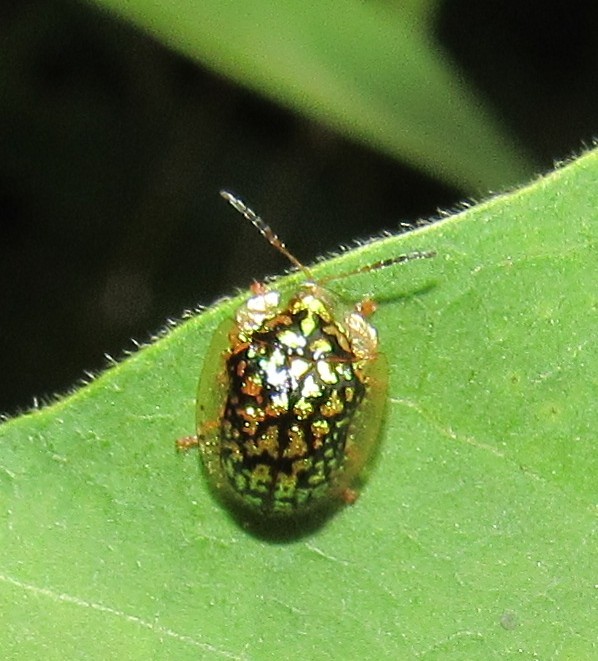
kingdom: Animalia
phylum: Arthropoda
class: Insecta
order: Coleoptera
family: Chrysomelidae
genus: Cteisella
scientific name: Cteisella confusa
